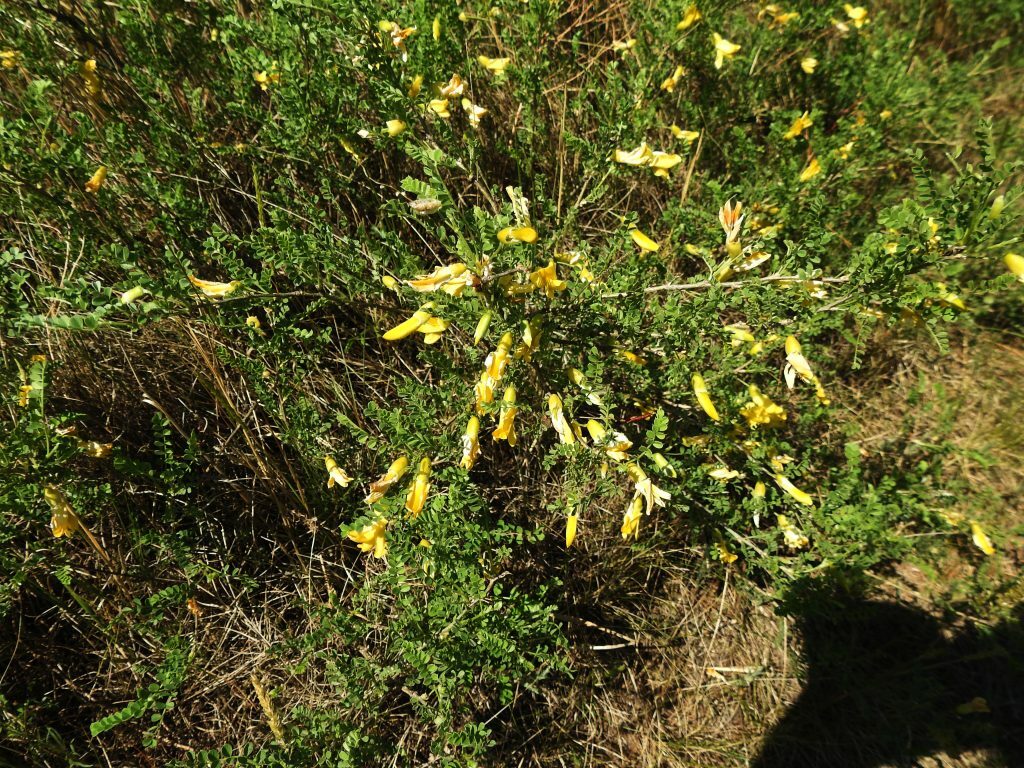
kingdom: Plantae
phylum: Tracheophyta
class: Magnoliopsida
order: Fabales
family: Fabaceae
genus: Caragana
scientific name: Caragana microphylla
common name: Littleleaf peashrub
